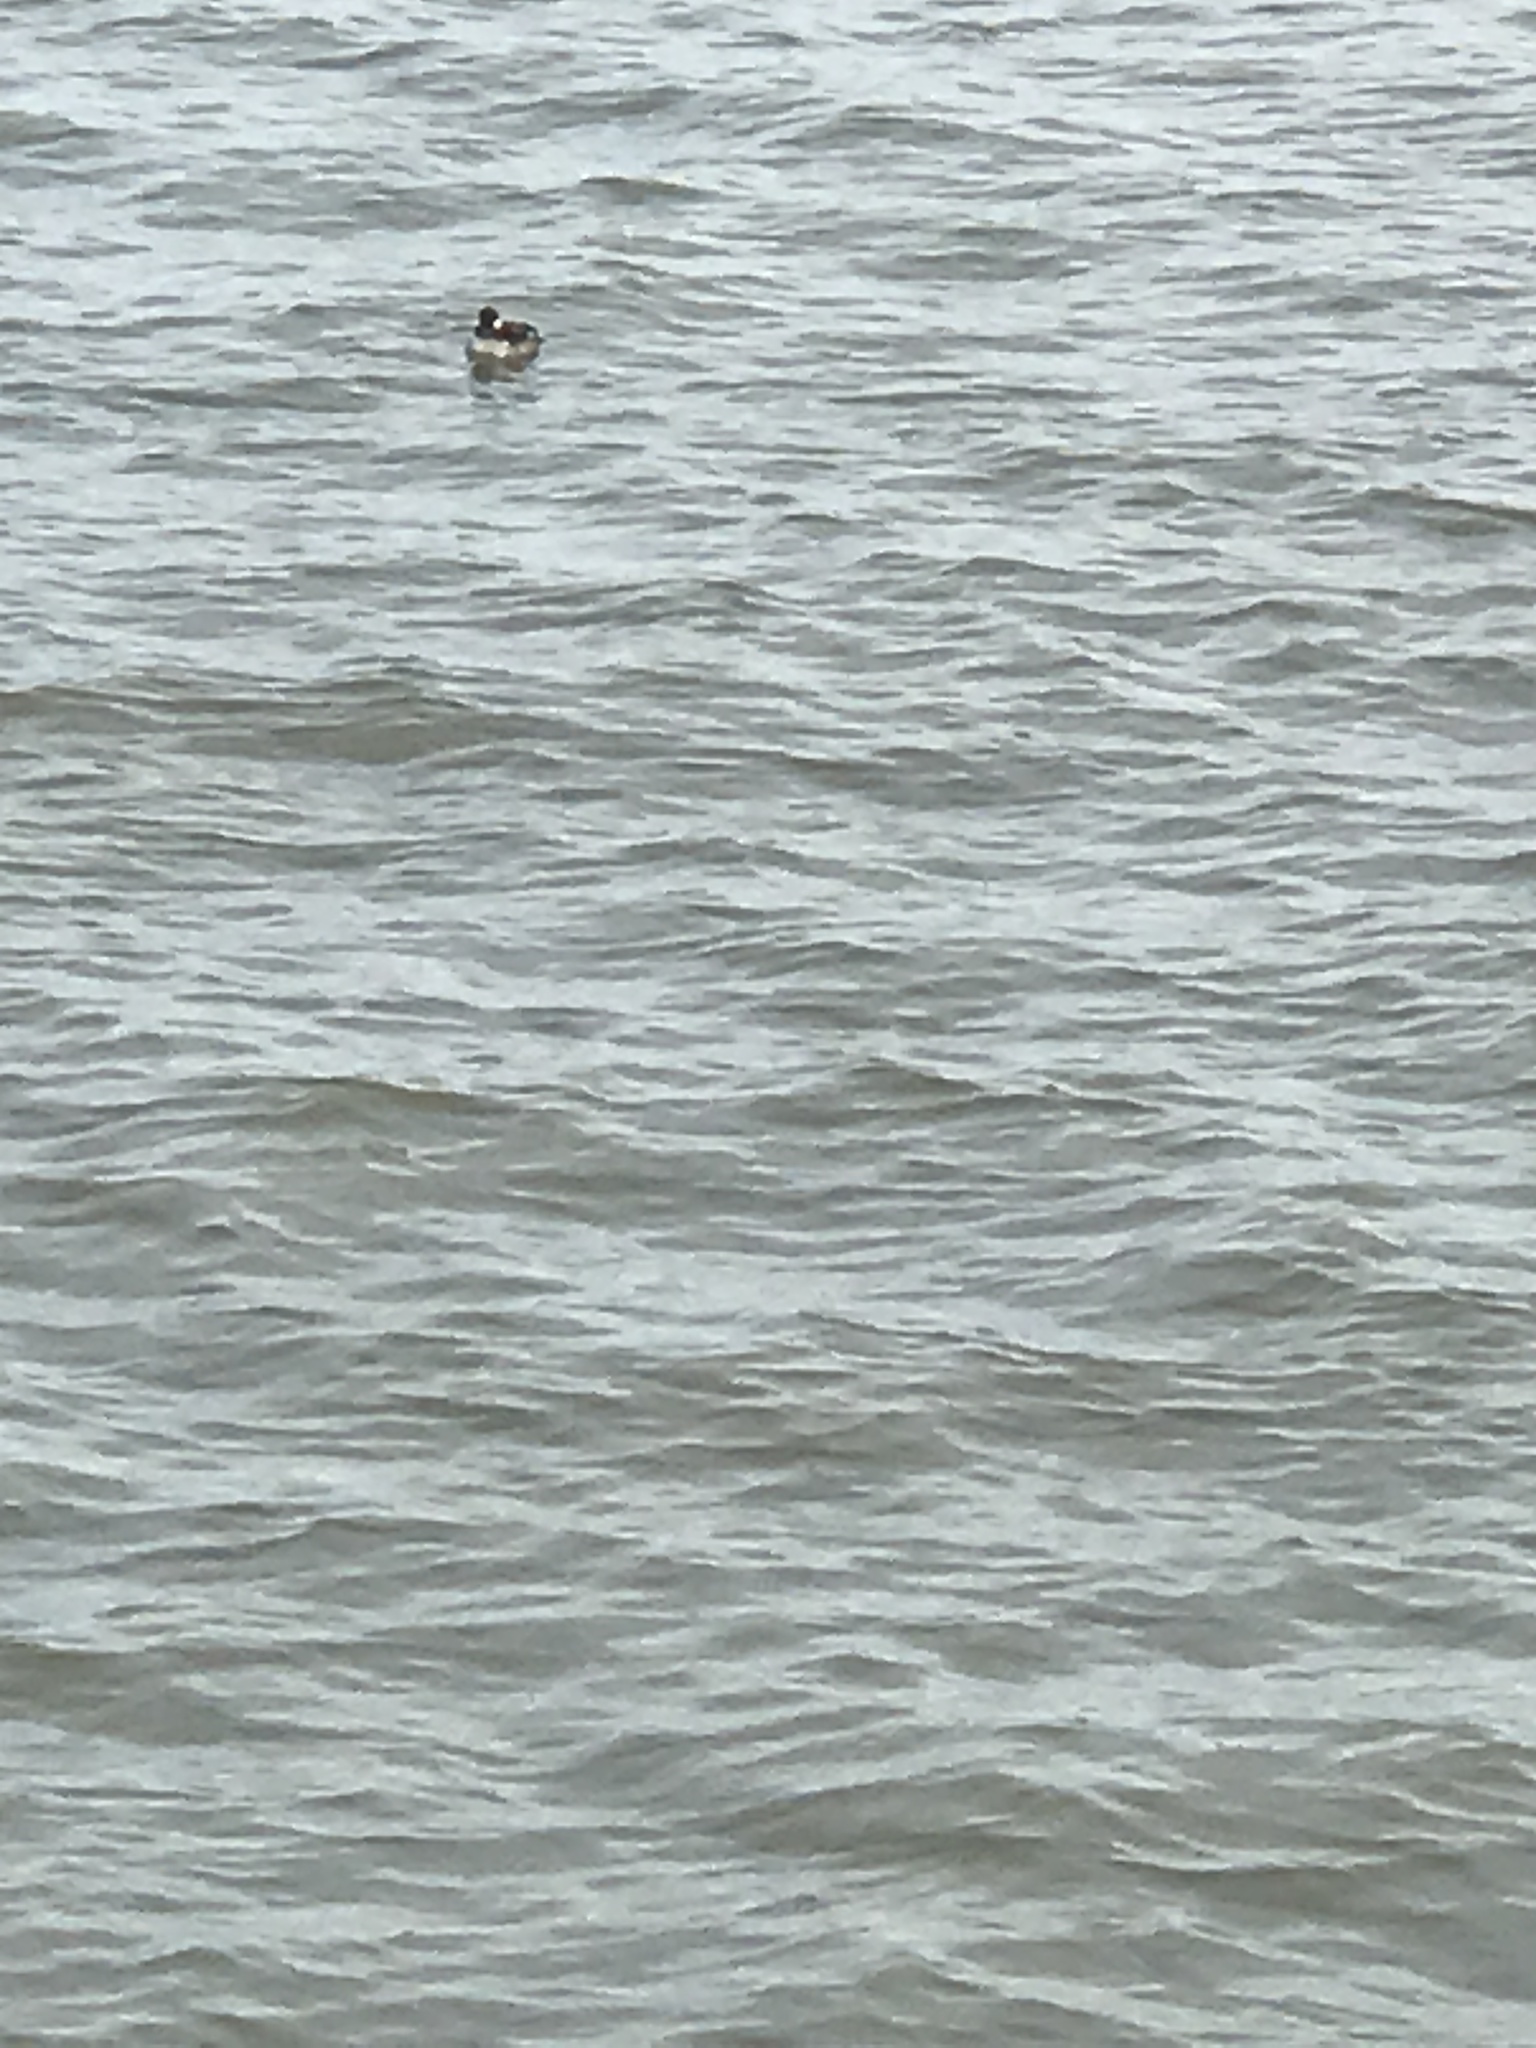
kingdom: Animalia
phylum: Chordata
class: Aves
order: Anseriformes
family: Anatidae
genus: Bucephala
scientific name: Bucephala albeola
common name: Bufflehead
